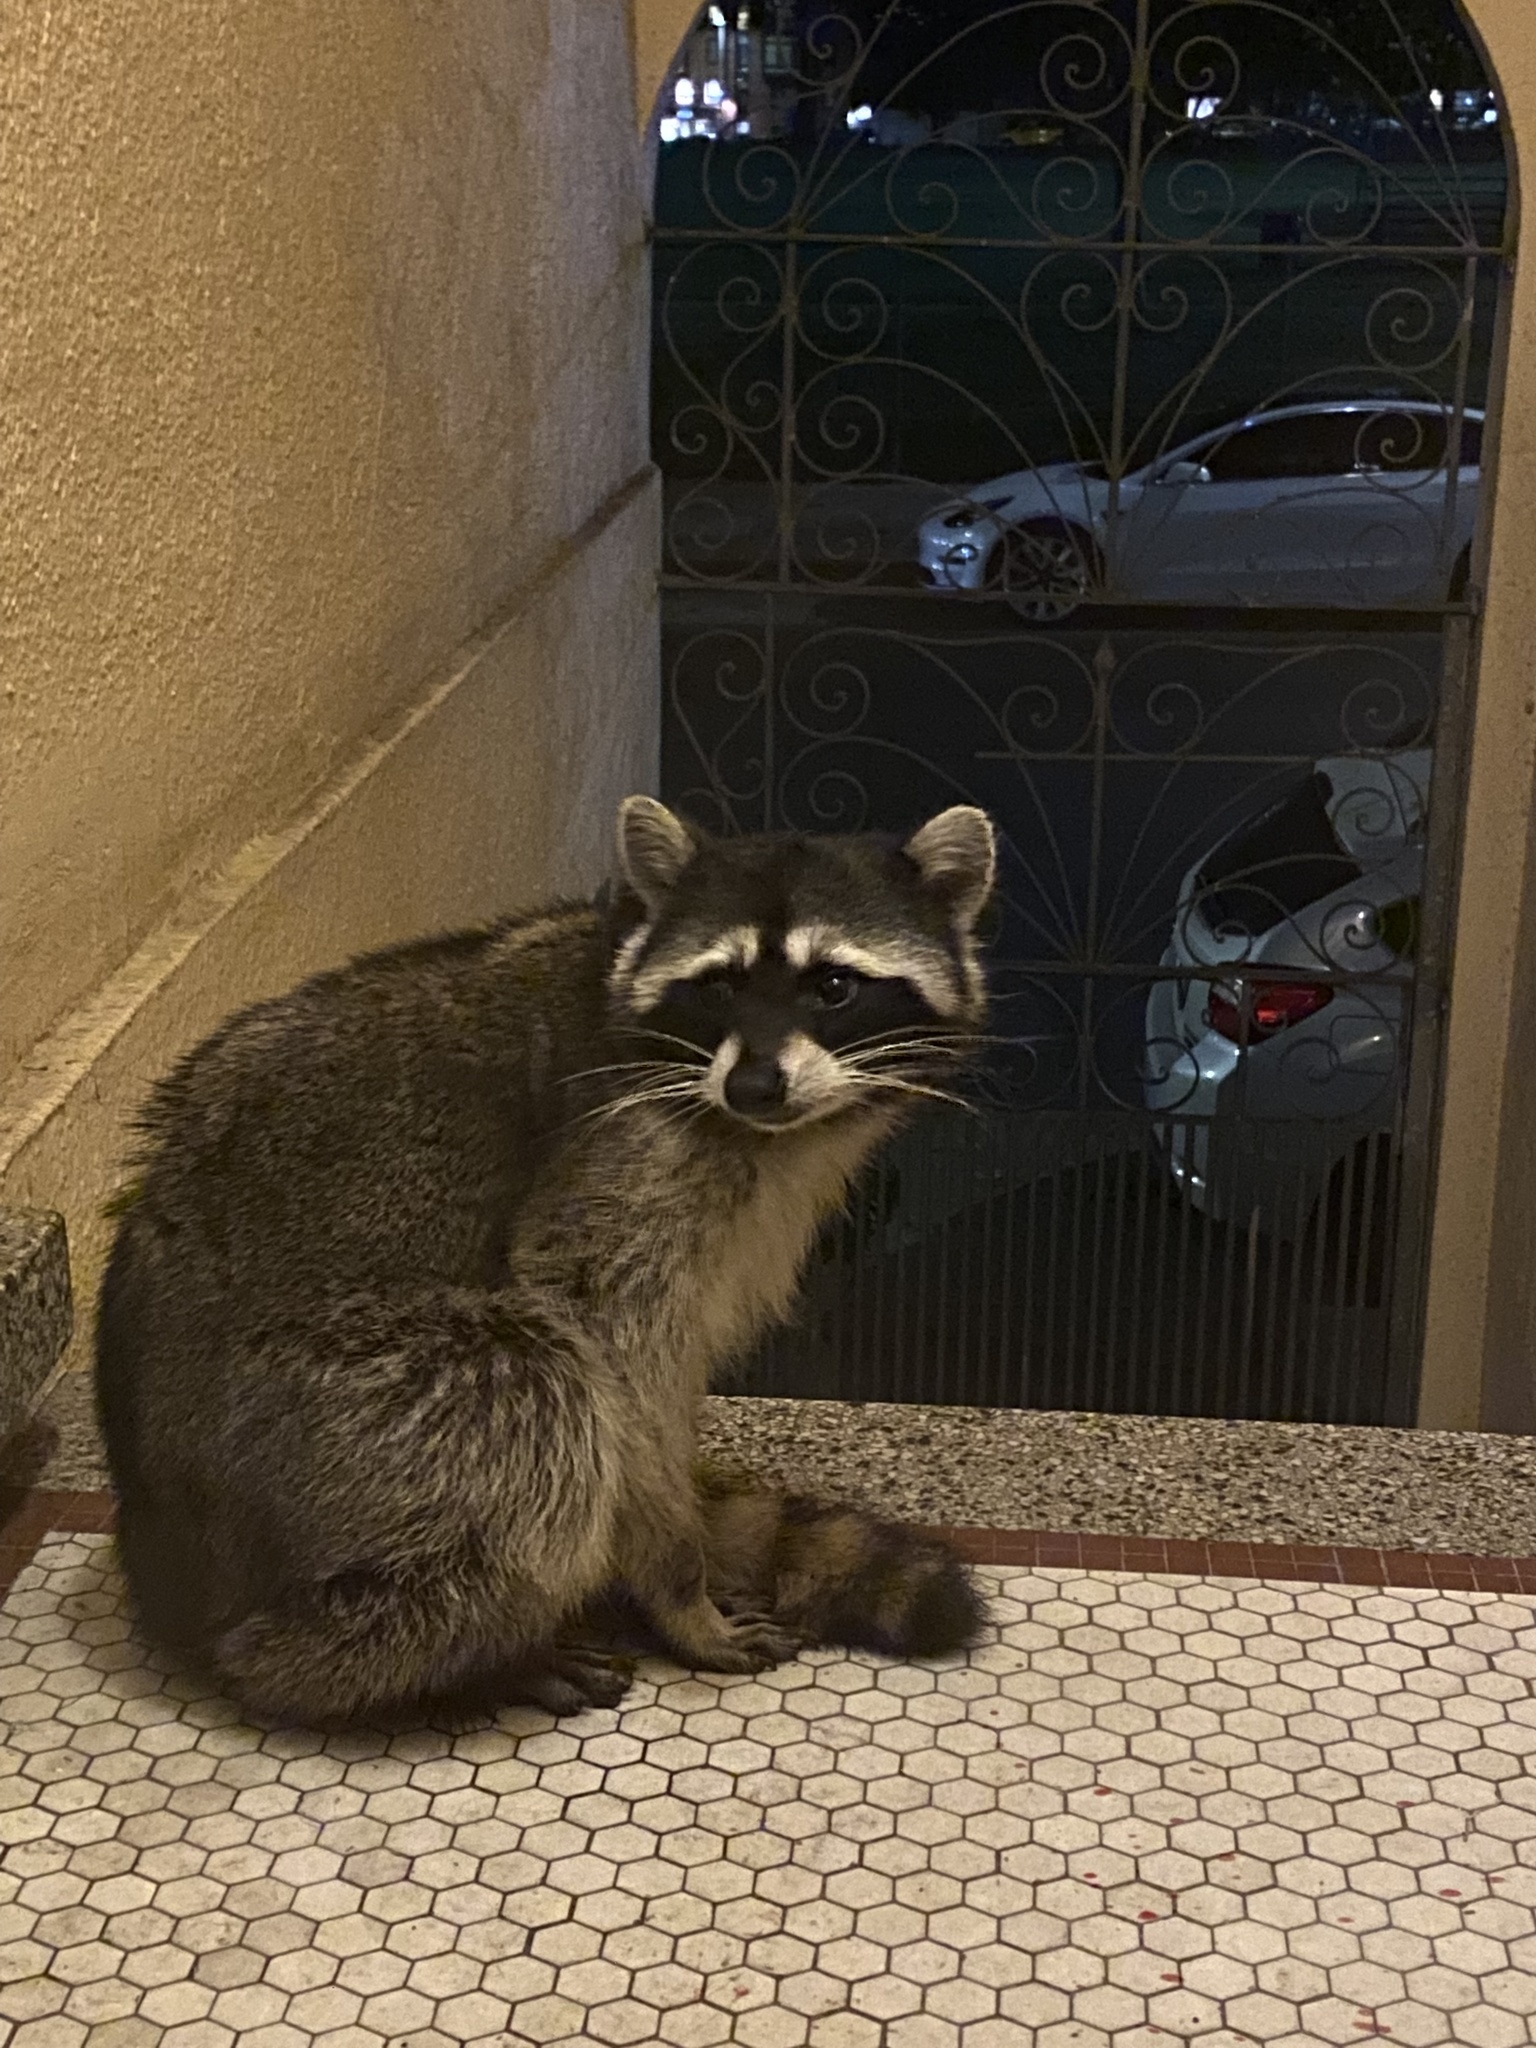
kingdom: Animalia
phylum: Chordata
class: Mammalia
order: Carnivora
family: Procyonidae
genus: Procyon
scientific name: Procyon lotor
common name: Raccoon
